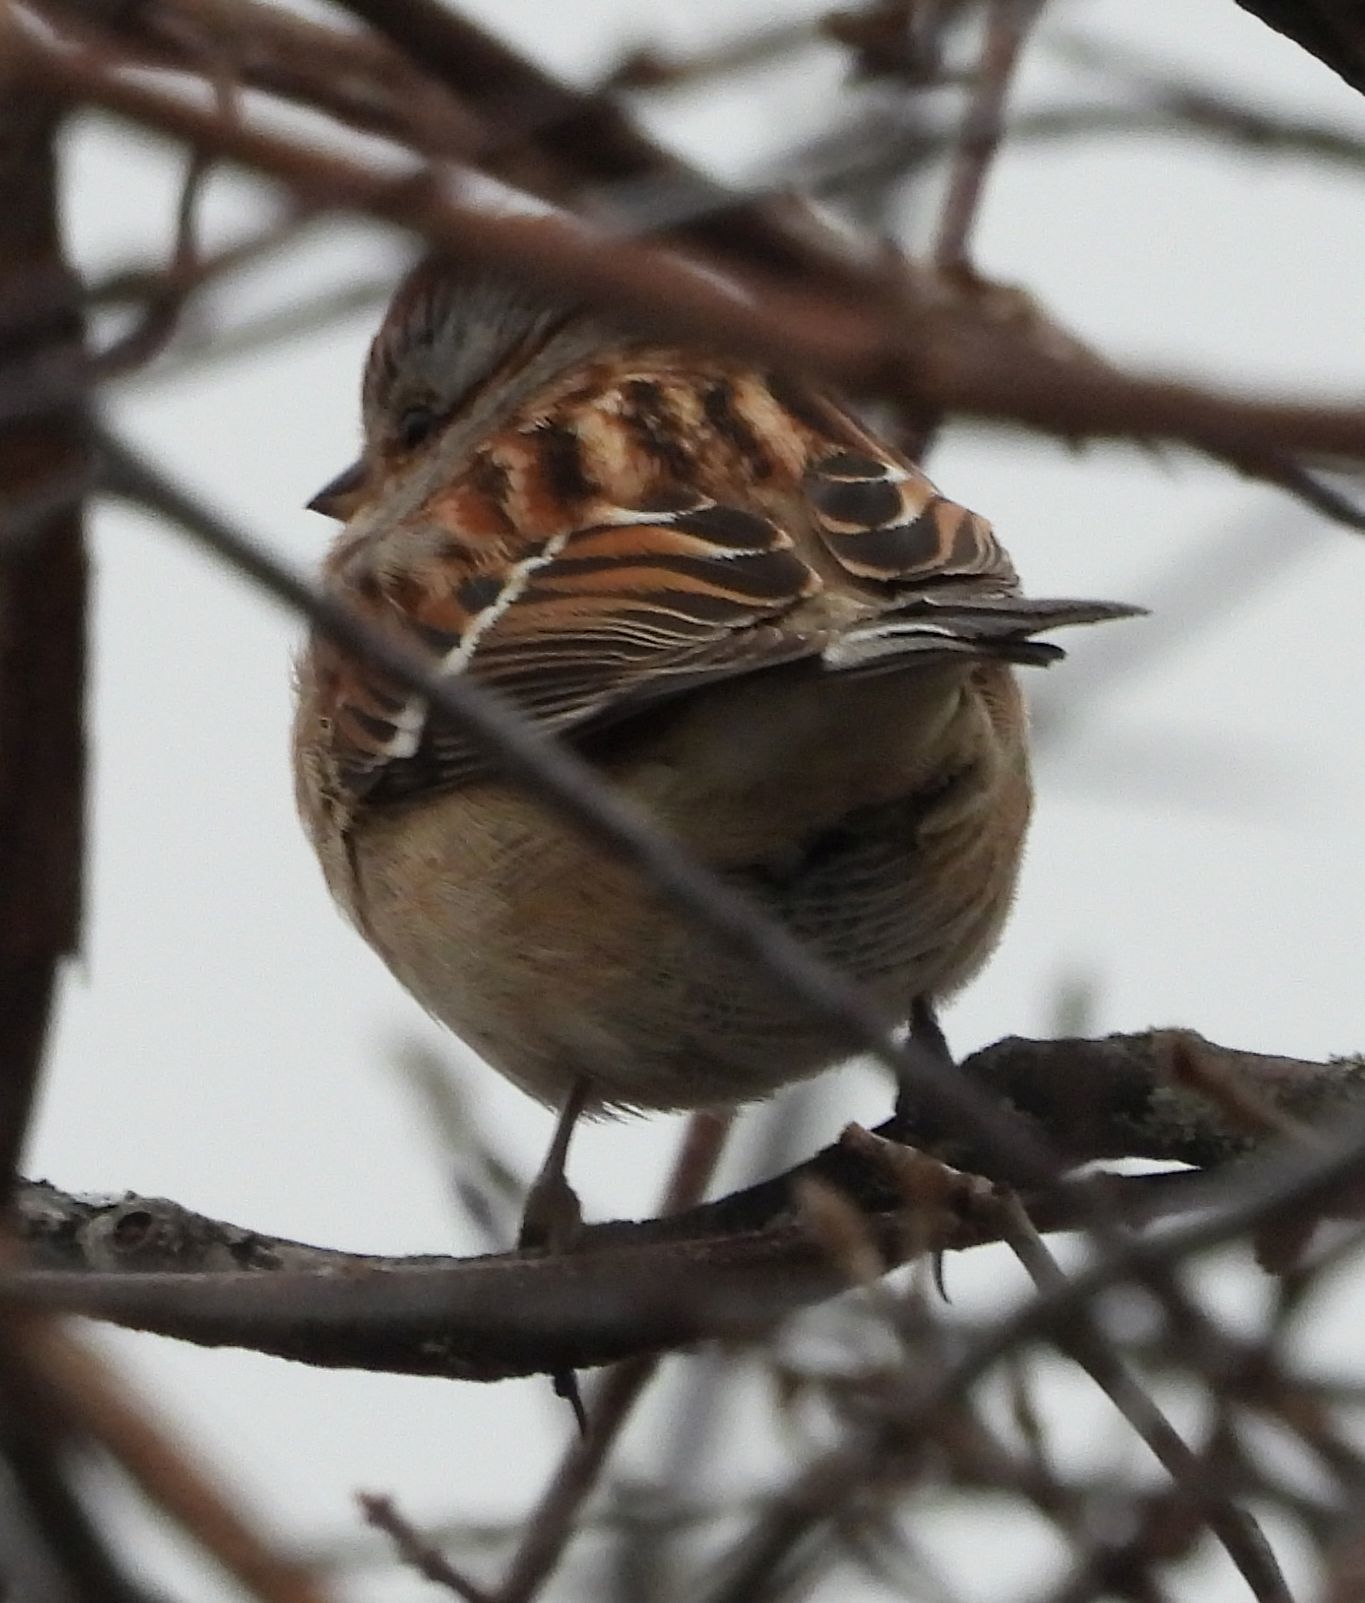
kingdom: Animalia
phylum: Chordata
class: Aves
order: Passeriformes
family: Passerellidae
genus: Spizelloides
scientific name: Spizelloides arborea
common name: American tree sparrow
